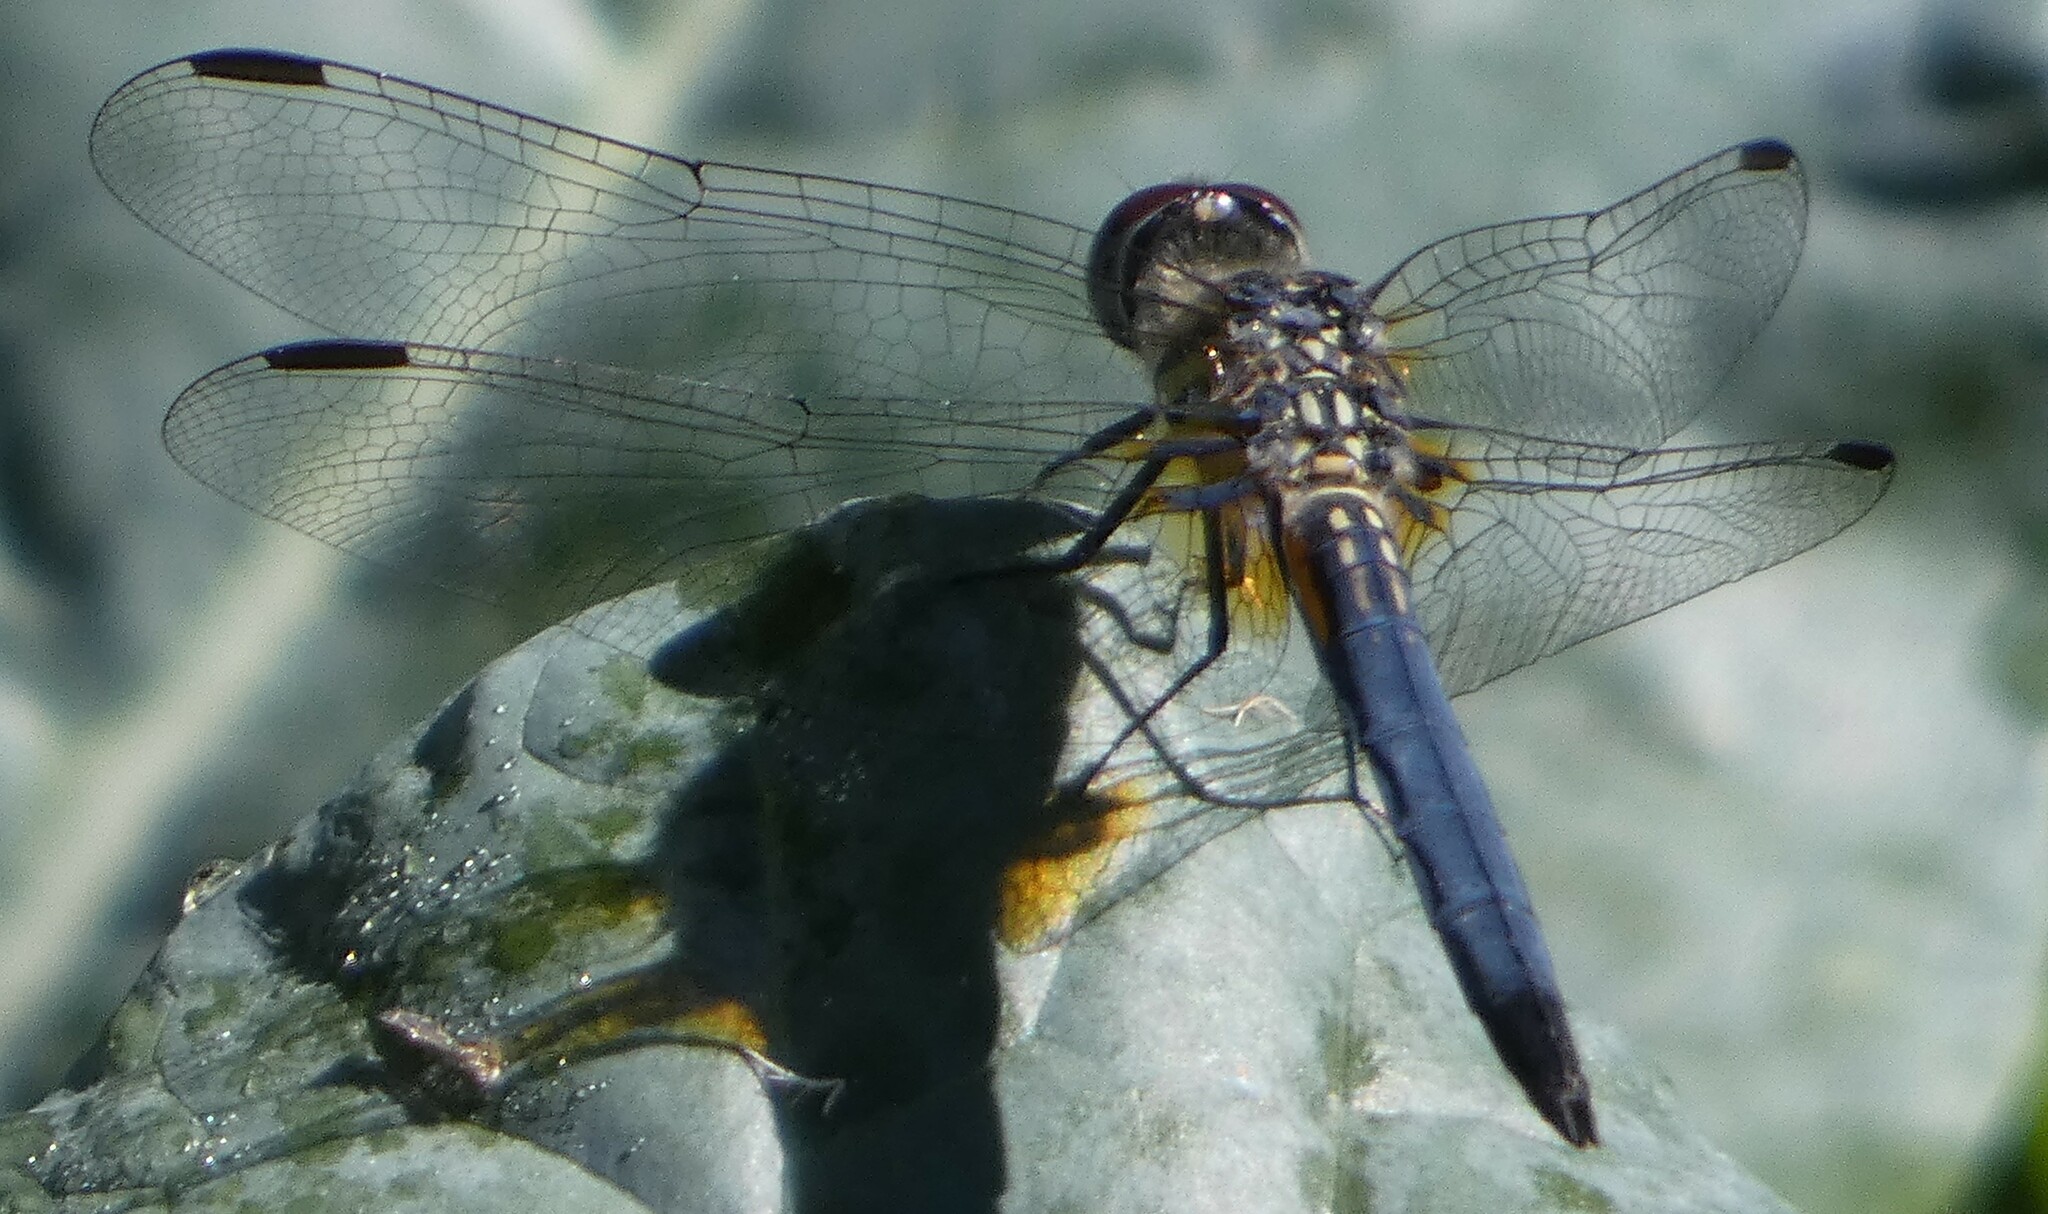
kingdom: Animalia
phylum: Arthropoda
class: Insecta
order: Odonata
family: Libellulidae
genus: Pachydiplax
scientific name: Pachydiplax longipennis
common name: Blue dasher
